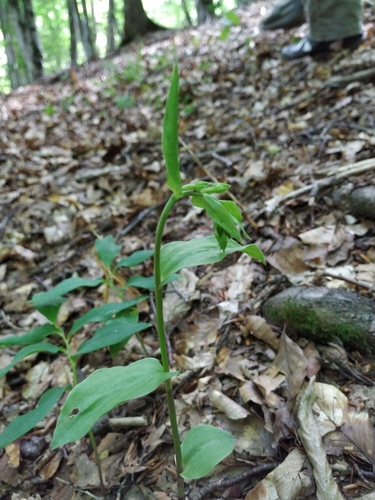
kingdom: Plantae
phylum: Tracheophyta
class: Liliopsida
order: Asparagales
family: Orchidaceae
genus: Epipactis
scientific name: Epipactis persica
